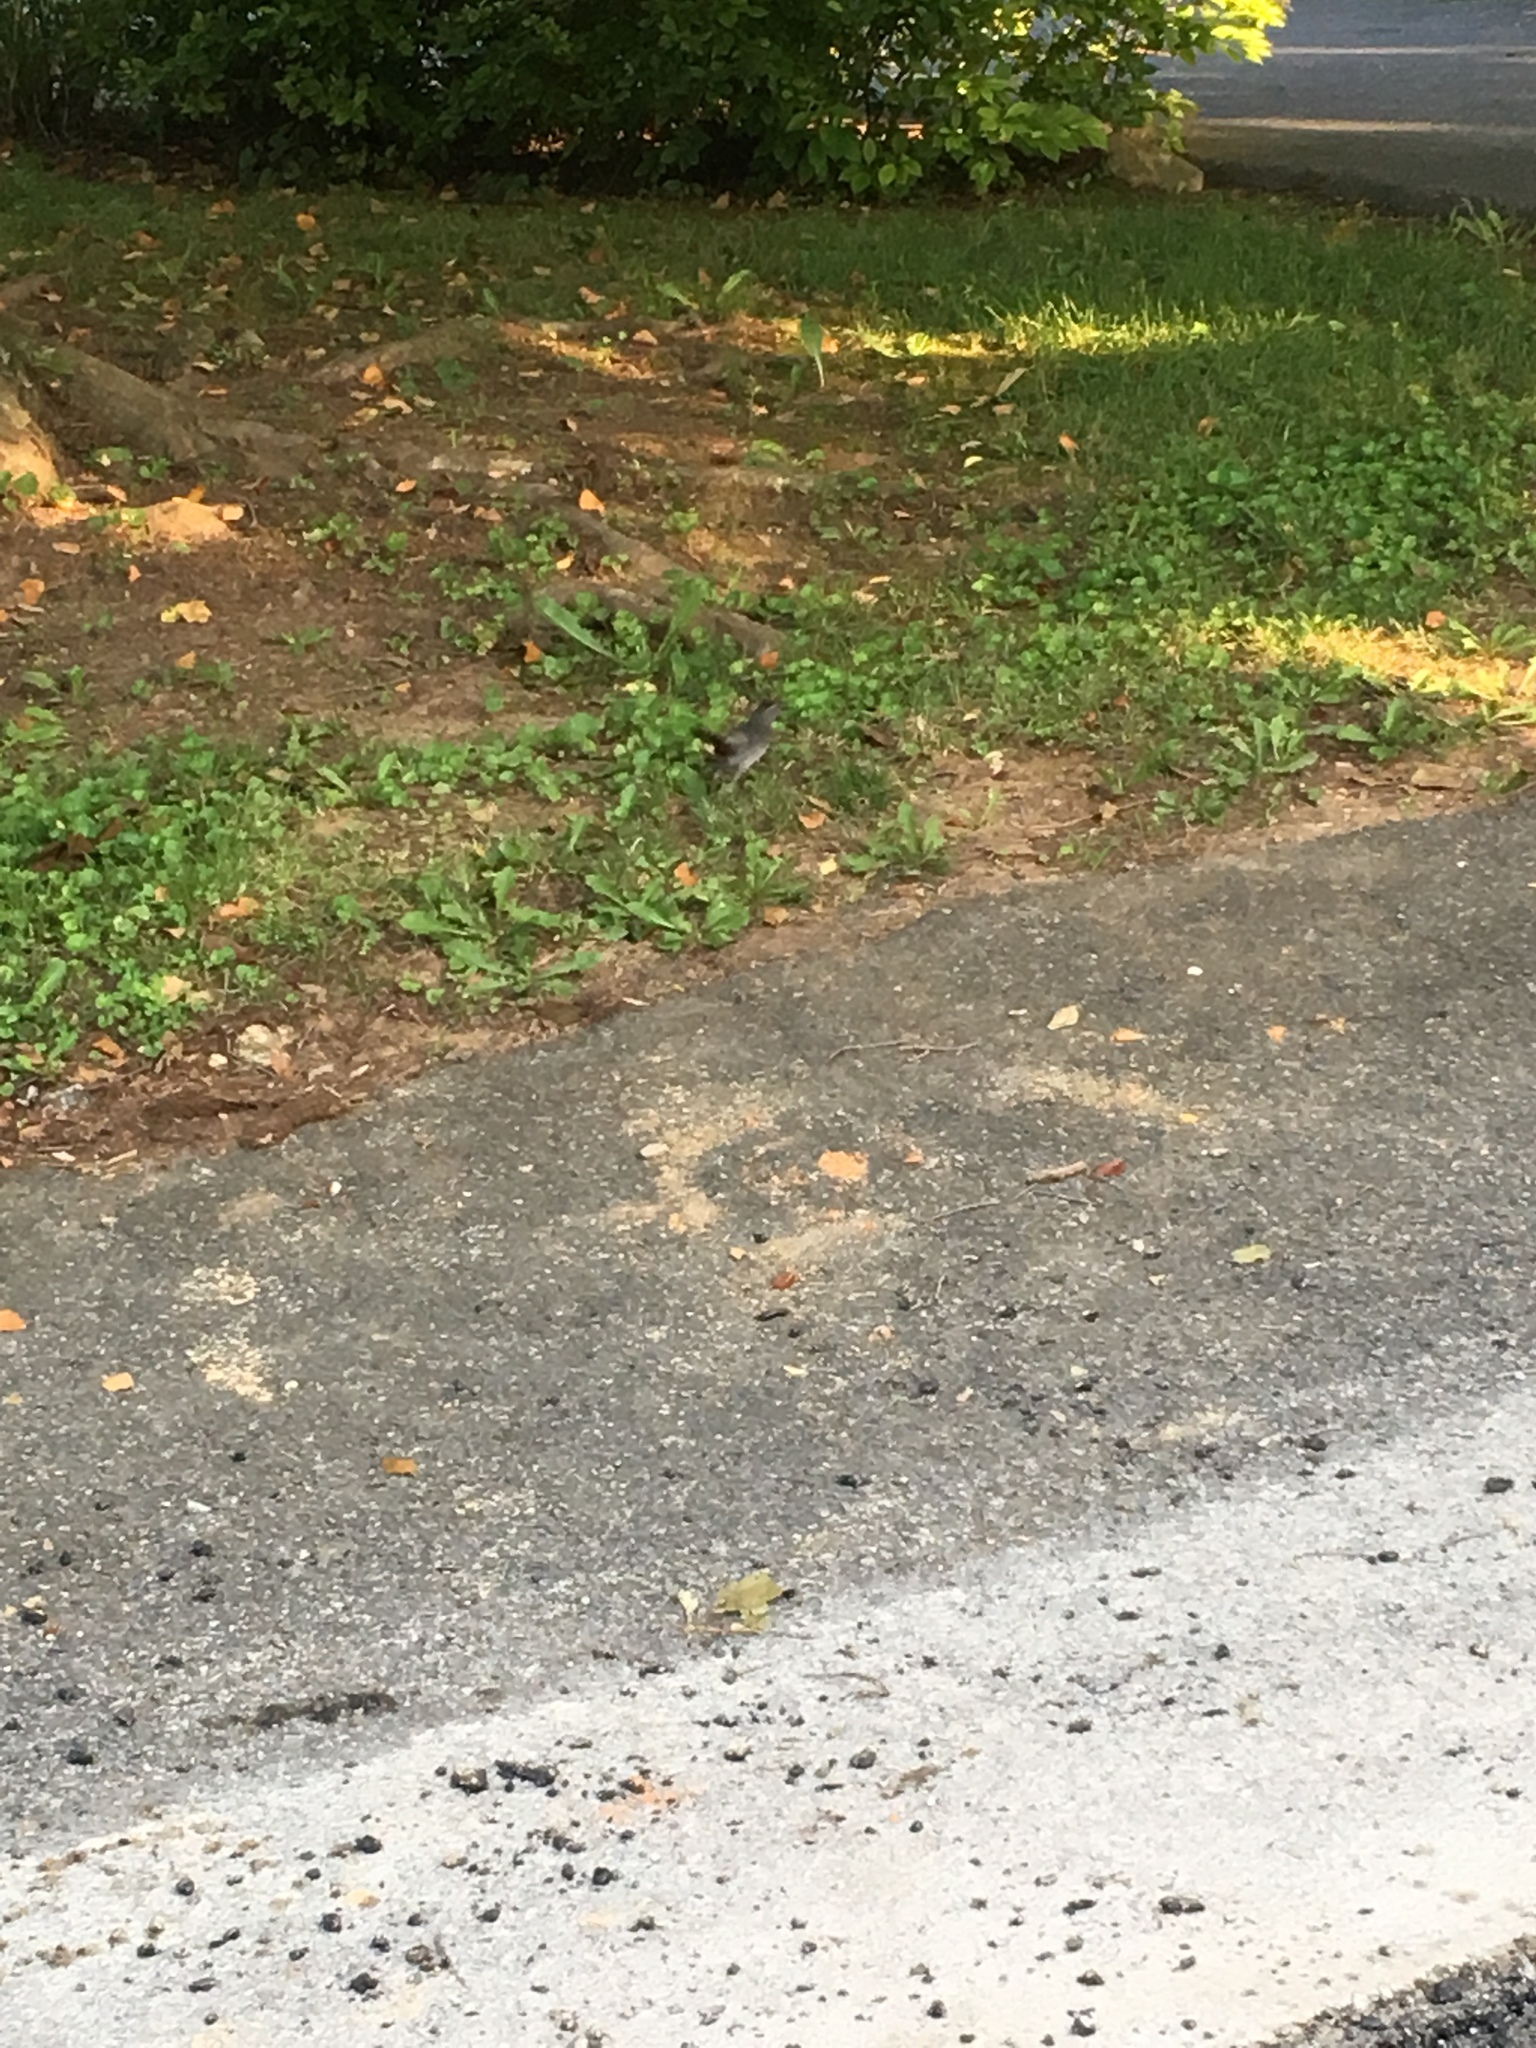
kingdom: Animalia
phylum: Chordata
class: Aves
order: Passeriformes
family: Mimidae
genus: Dumetella
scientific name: Dumetella carolinensis
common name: Gray catbird
